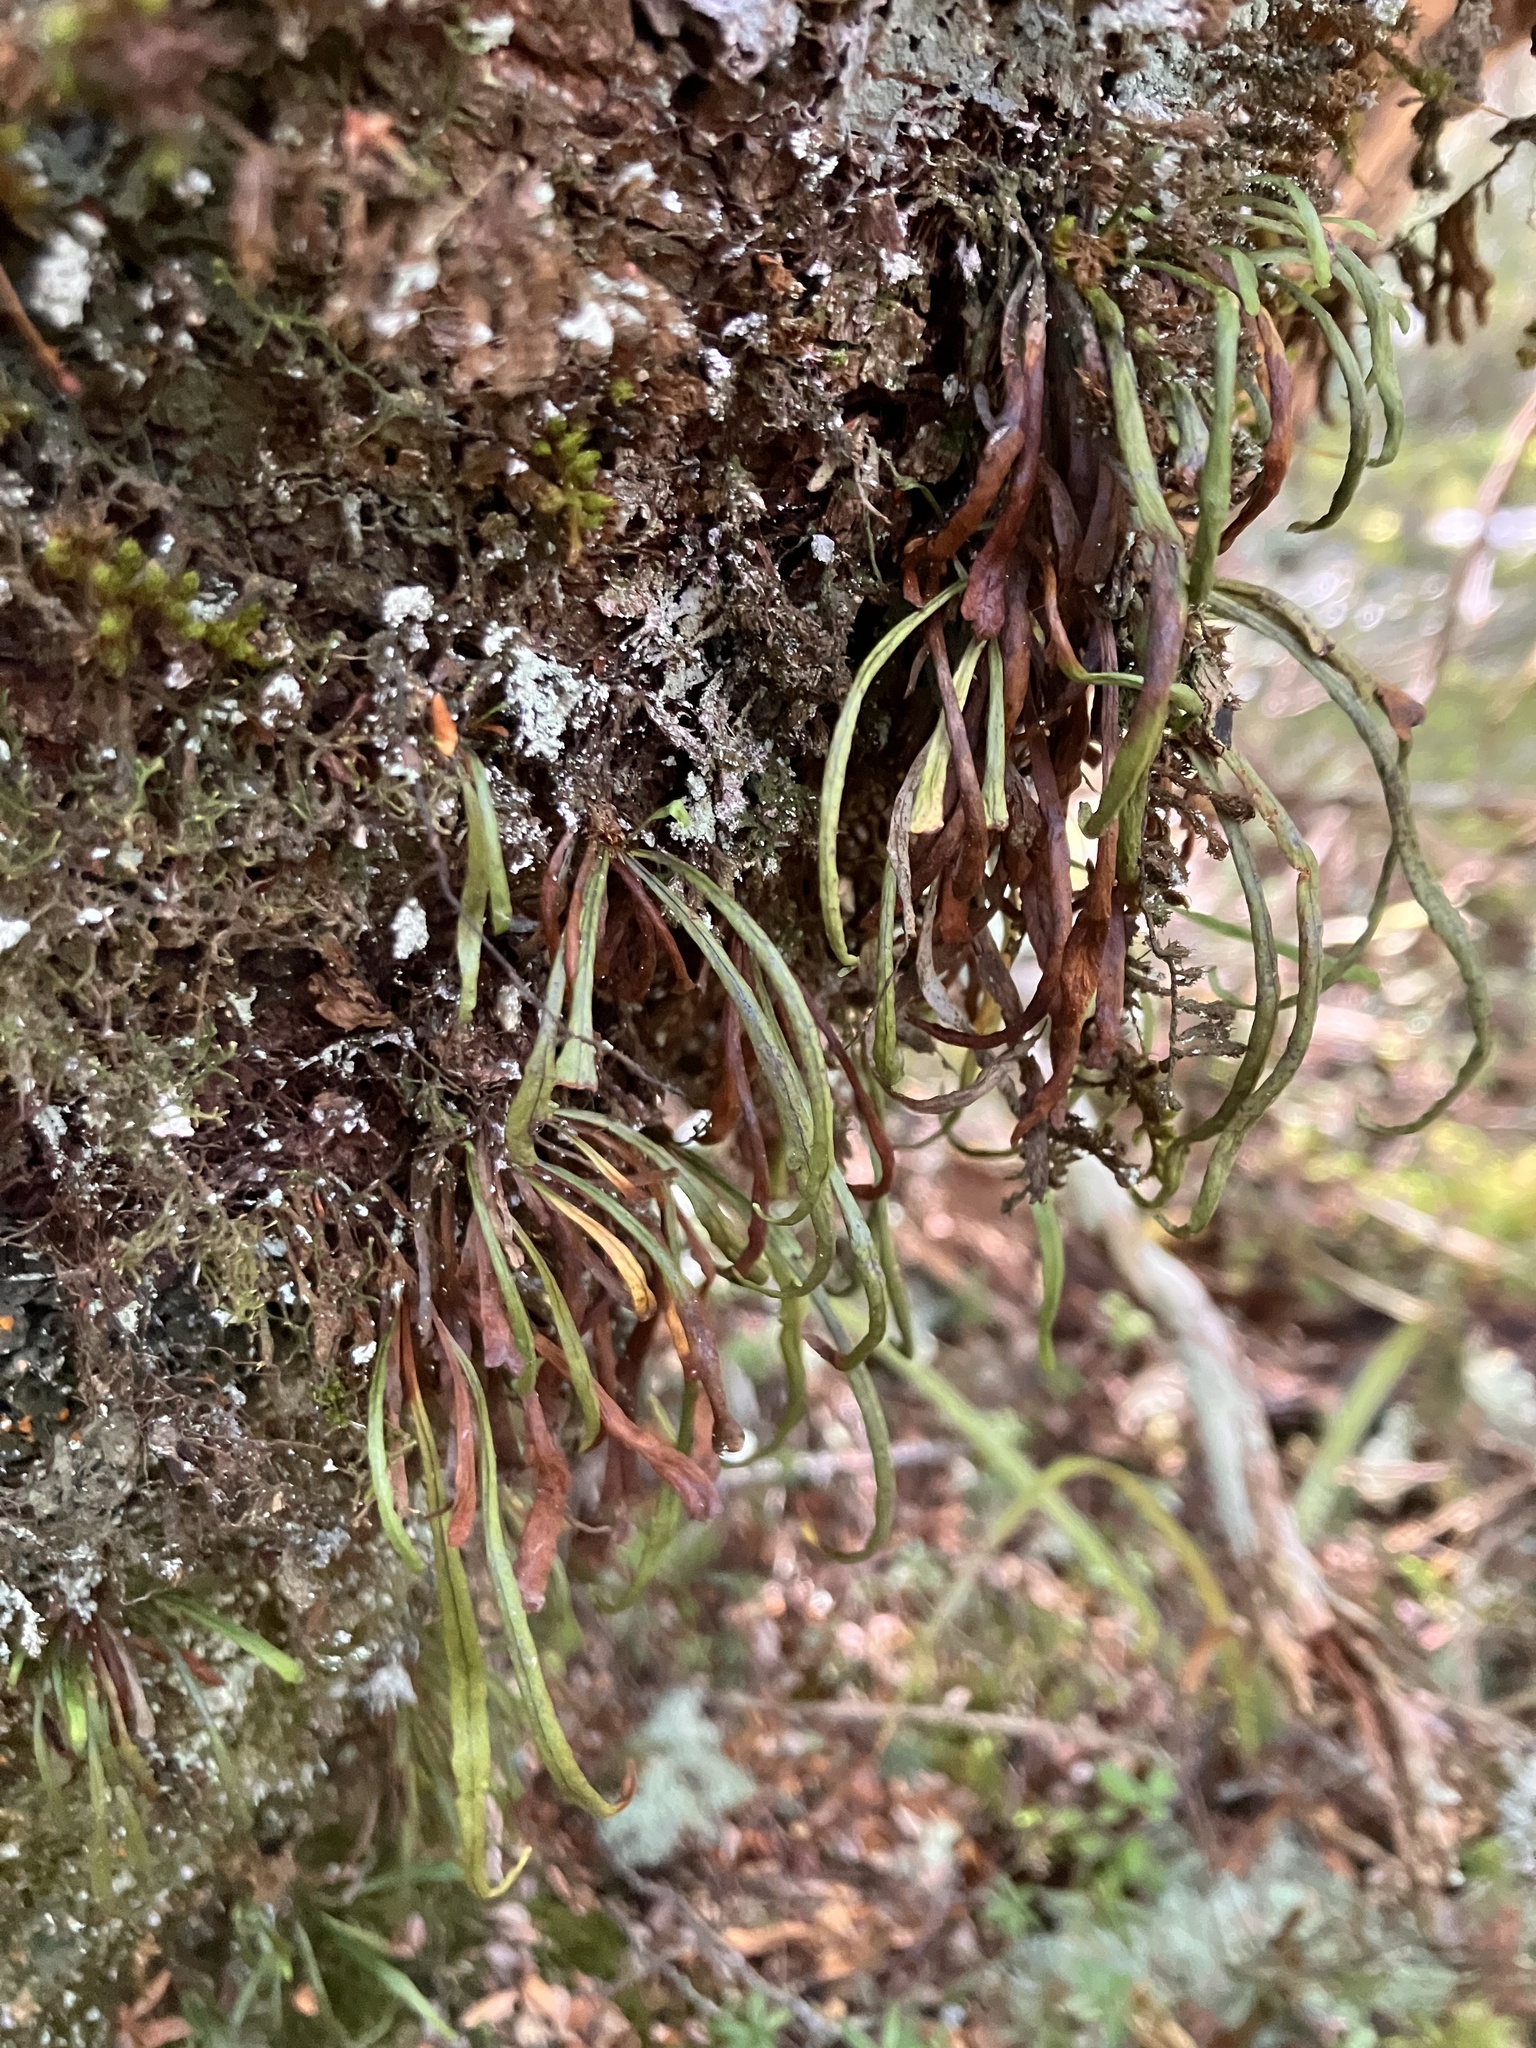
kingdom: Plantae
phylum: Tracheophyta
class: Polypodiopsida
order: Polypodiales
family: Polypodiaceae
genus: Notogrammitis
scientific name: Notogrammitis angustifolia
